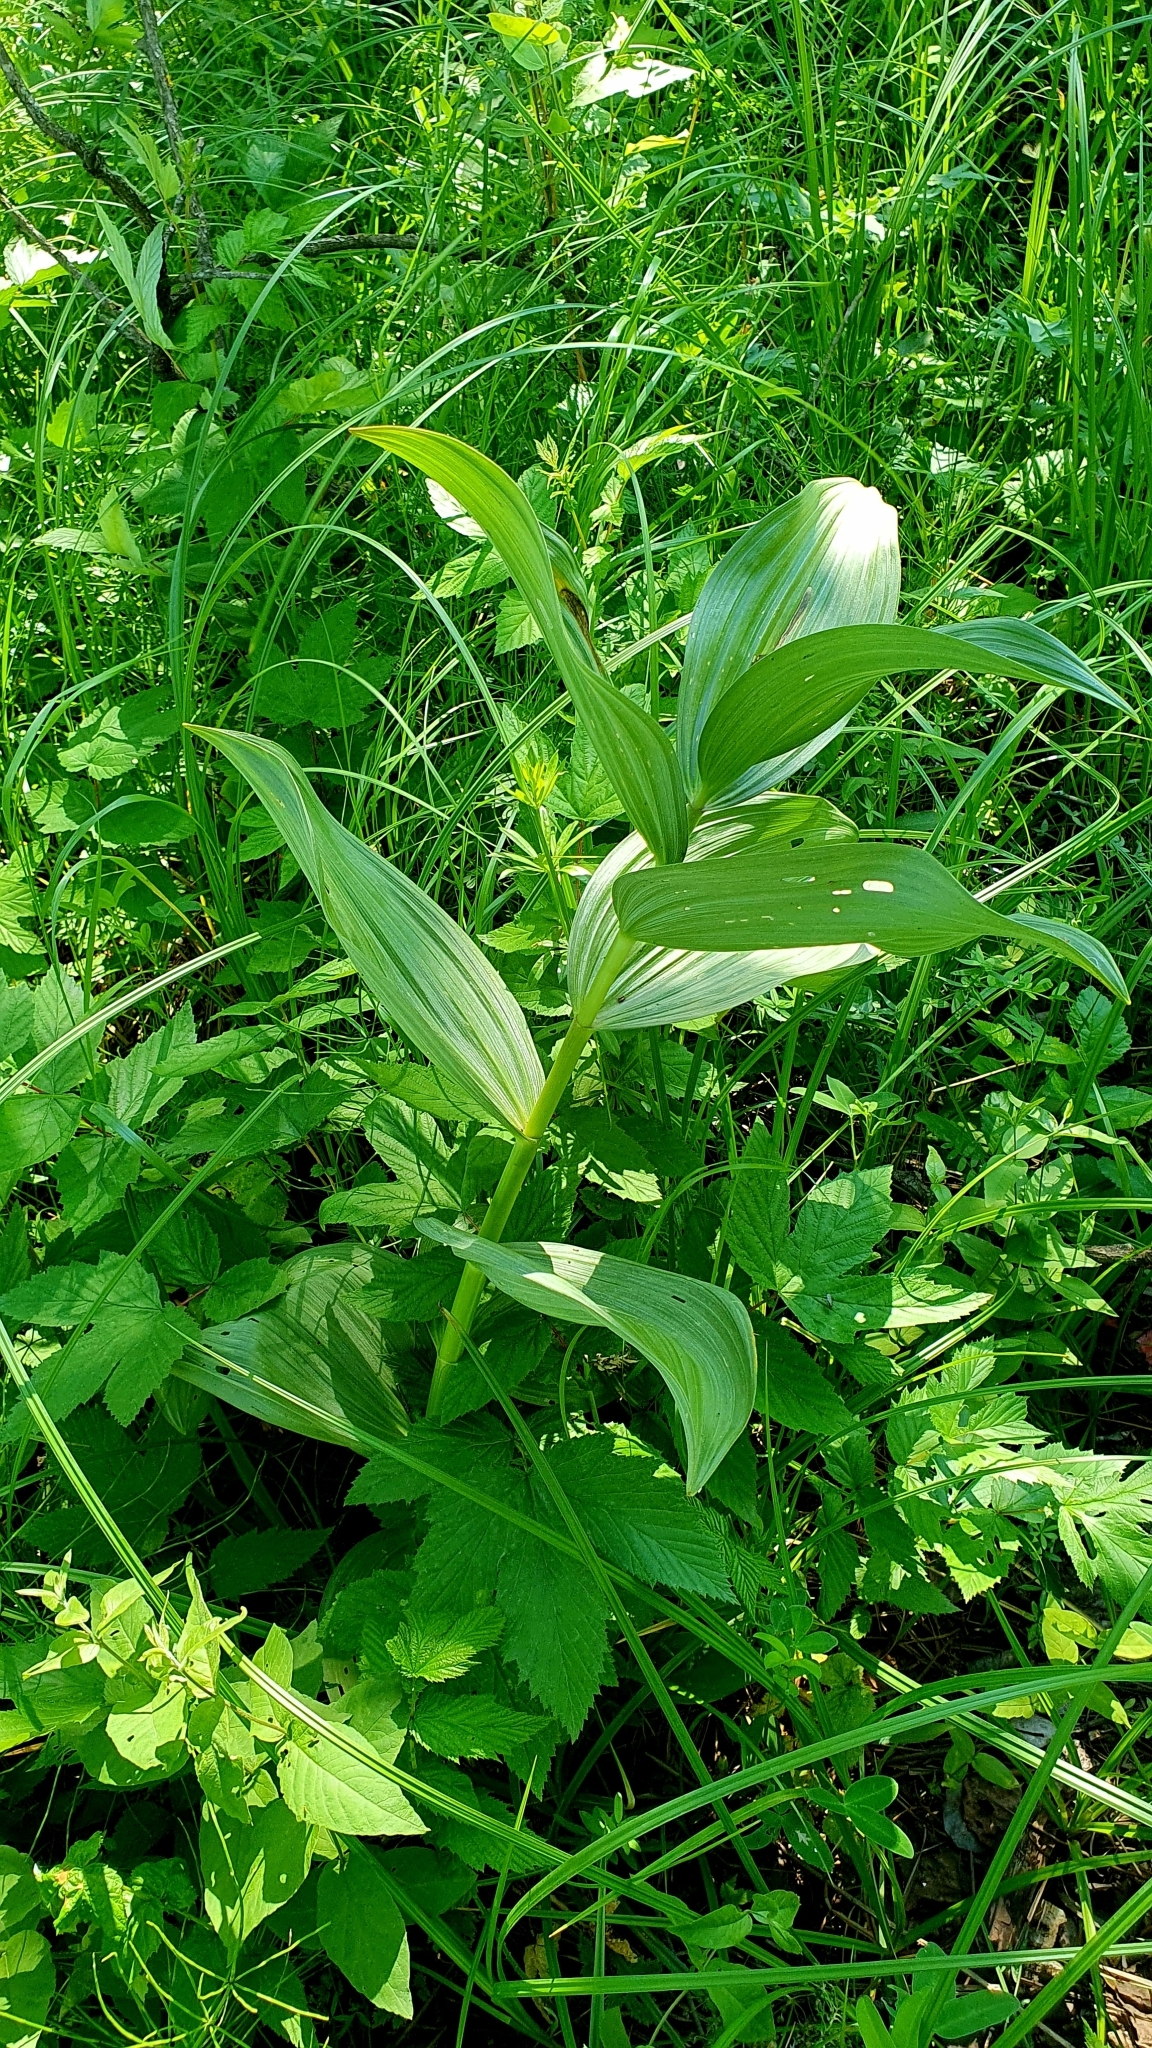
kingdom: Plantae
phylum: Tracheophyta
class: Liliopsida
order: Liliales
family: Melanthiaceae
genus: Veratrum
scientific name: Veratrum lobelianum
